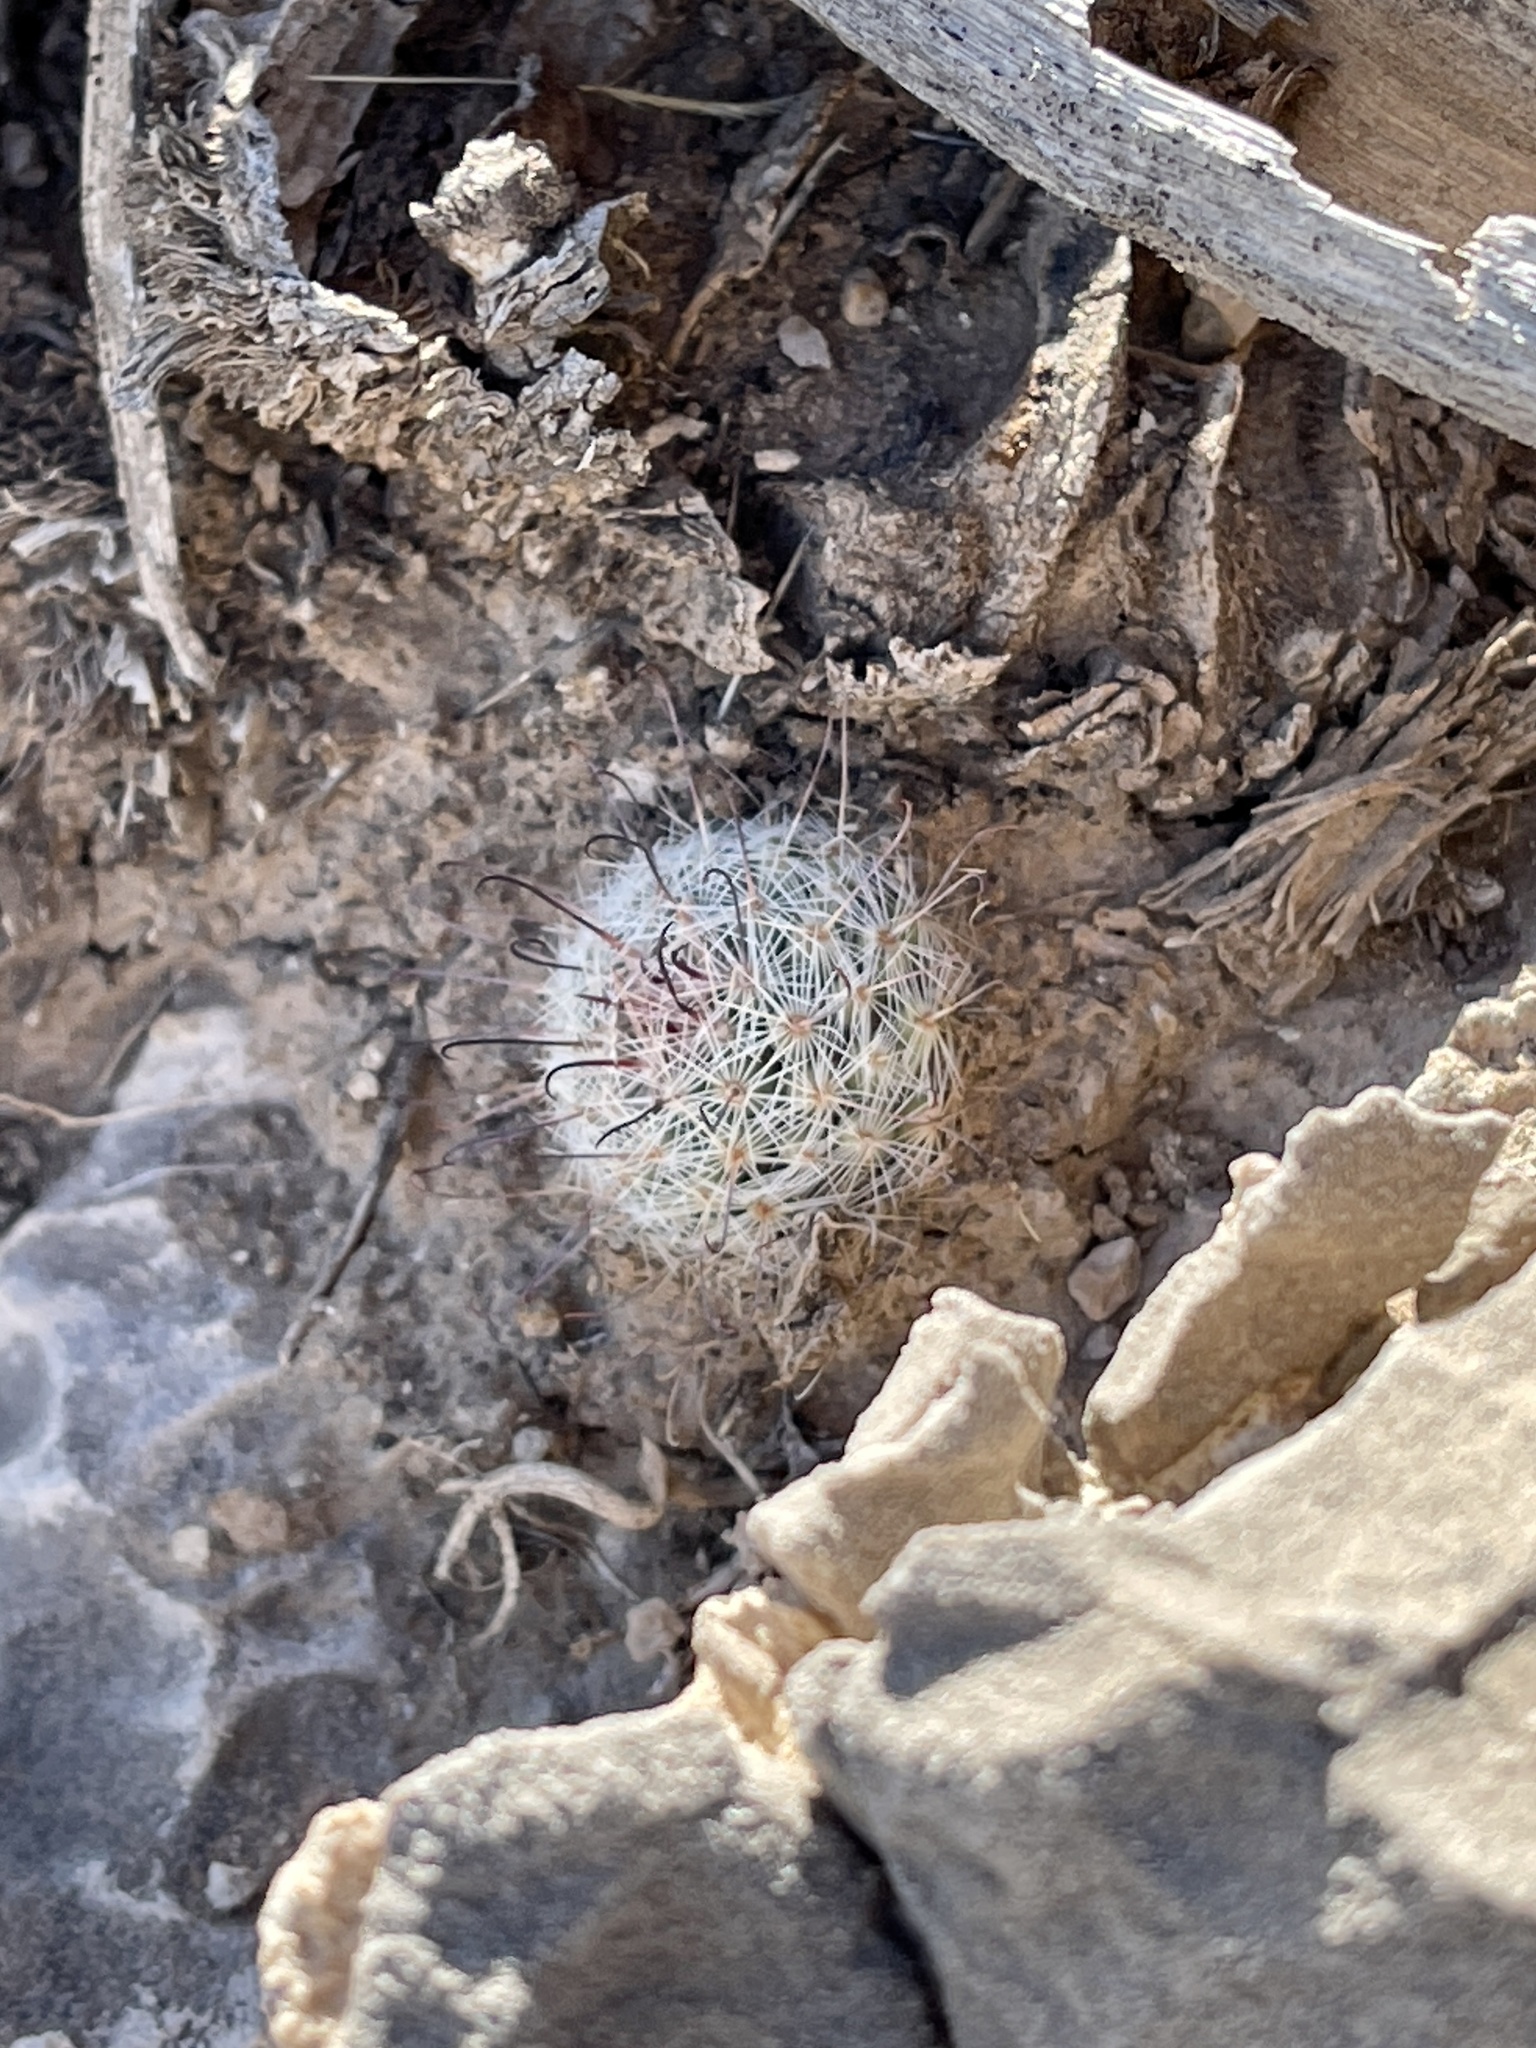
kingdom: Plantae
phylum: Tracheophyta
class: Magnoliopsida
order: Caryophyllales
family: Cactaceae
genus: Cochemiea
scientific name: Cochemiea grahamii
